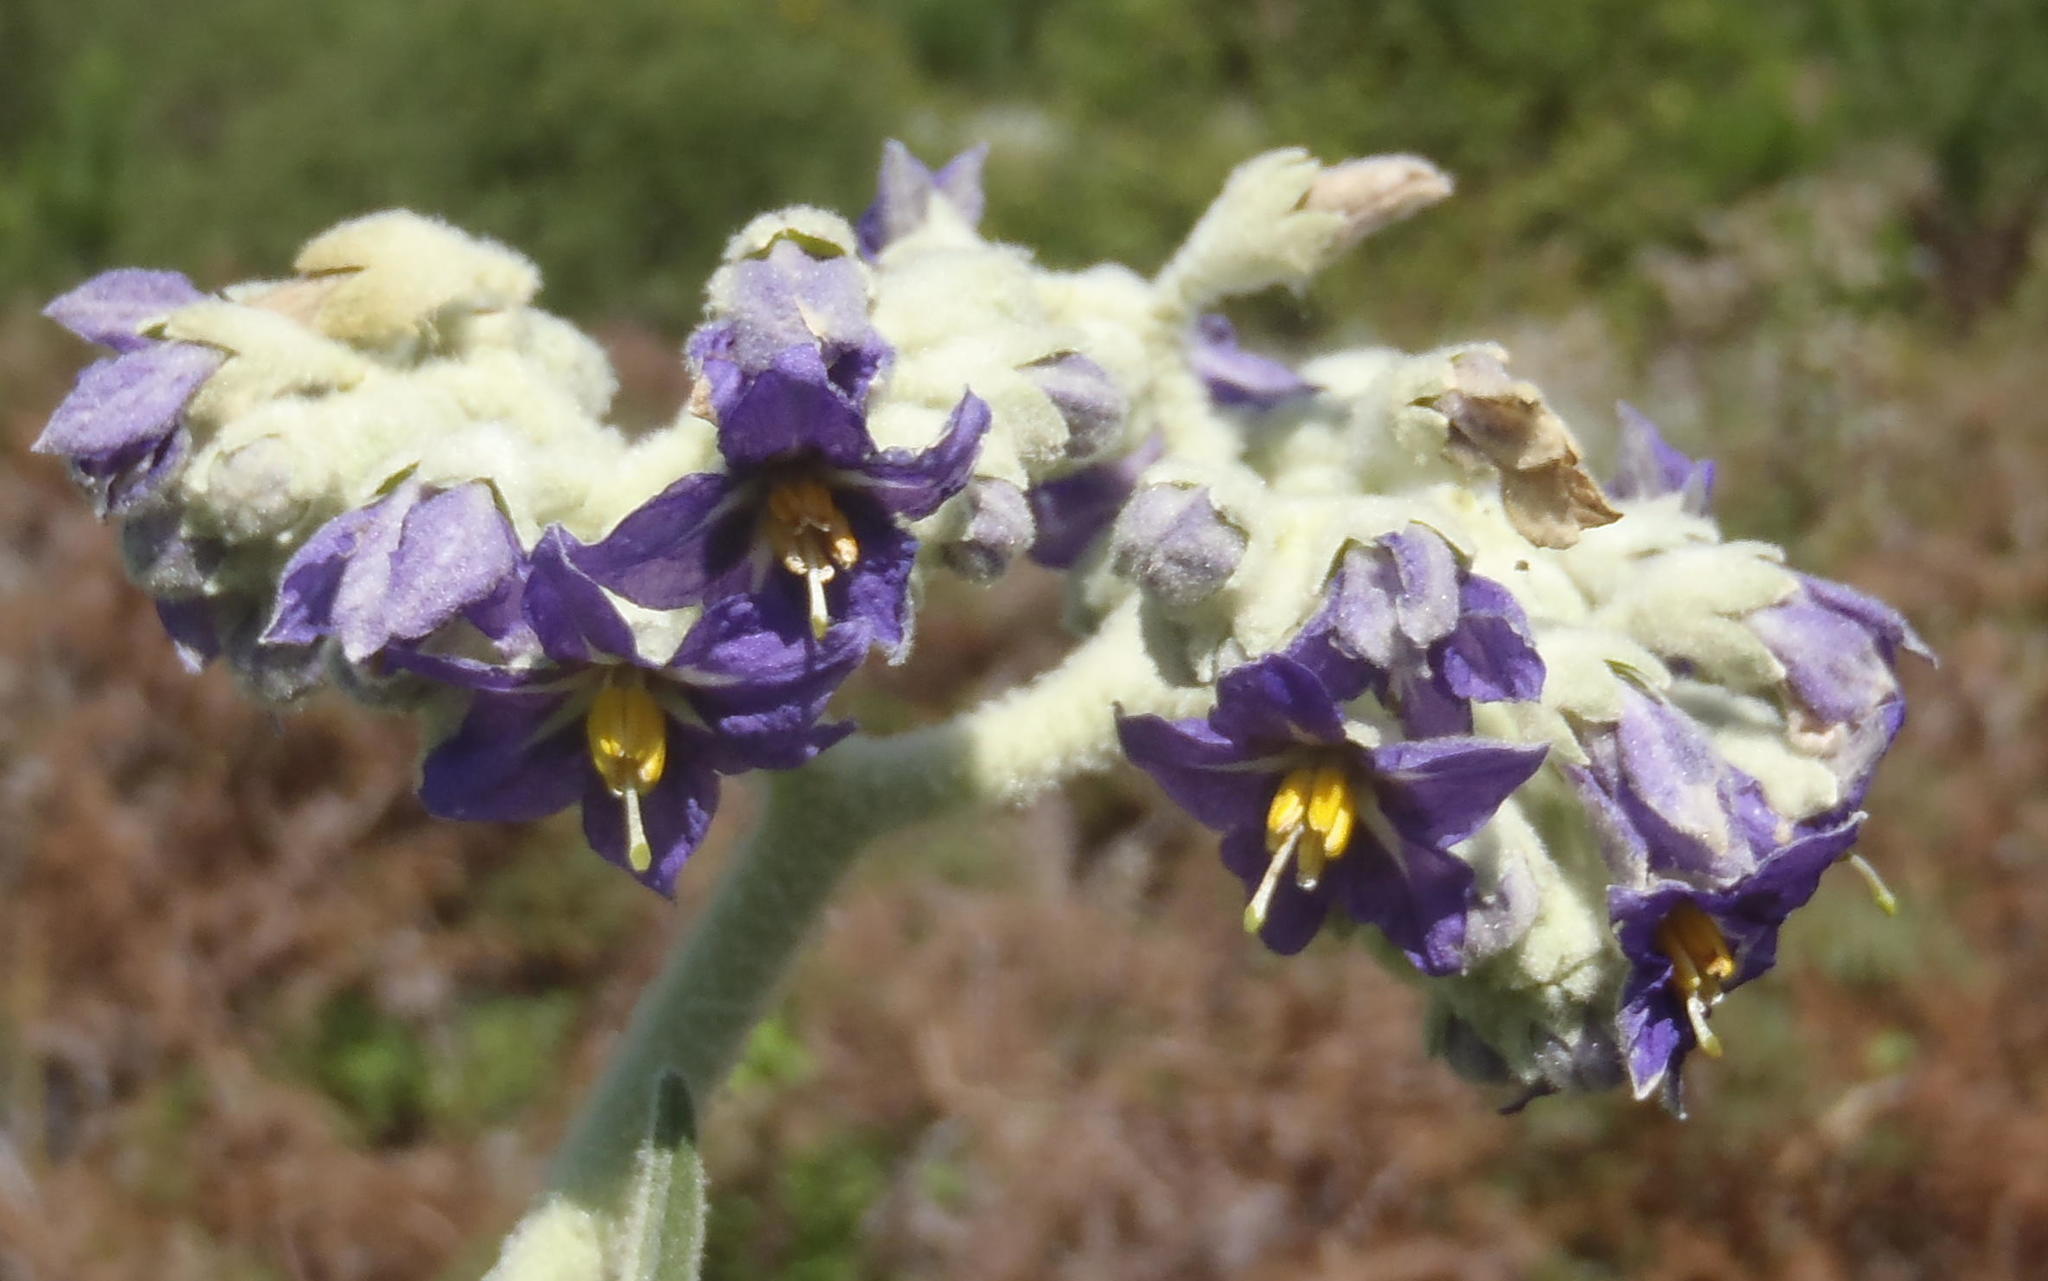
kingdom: Plantae
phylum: Tracheophyta
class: Magnoliopsida
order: Solanales
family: Solanaceae
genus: Solanum
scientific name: Solanum mauritianum
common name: Earleaf nightshade
